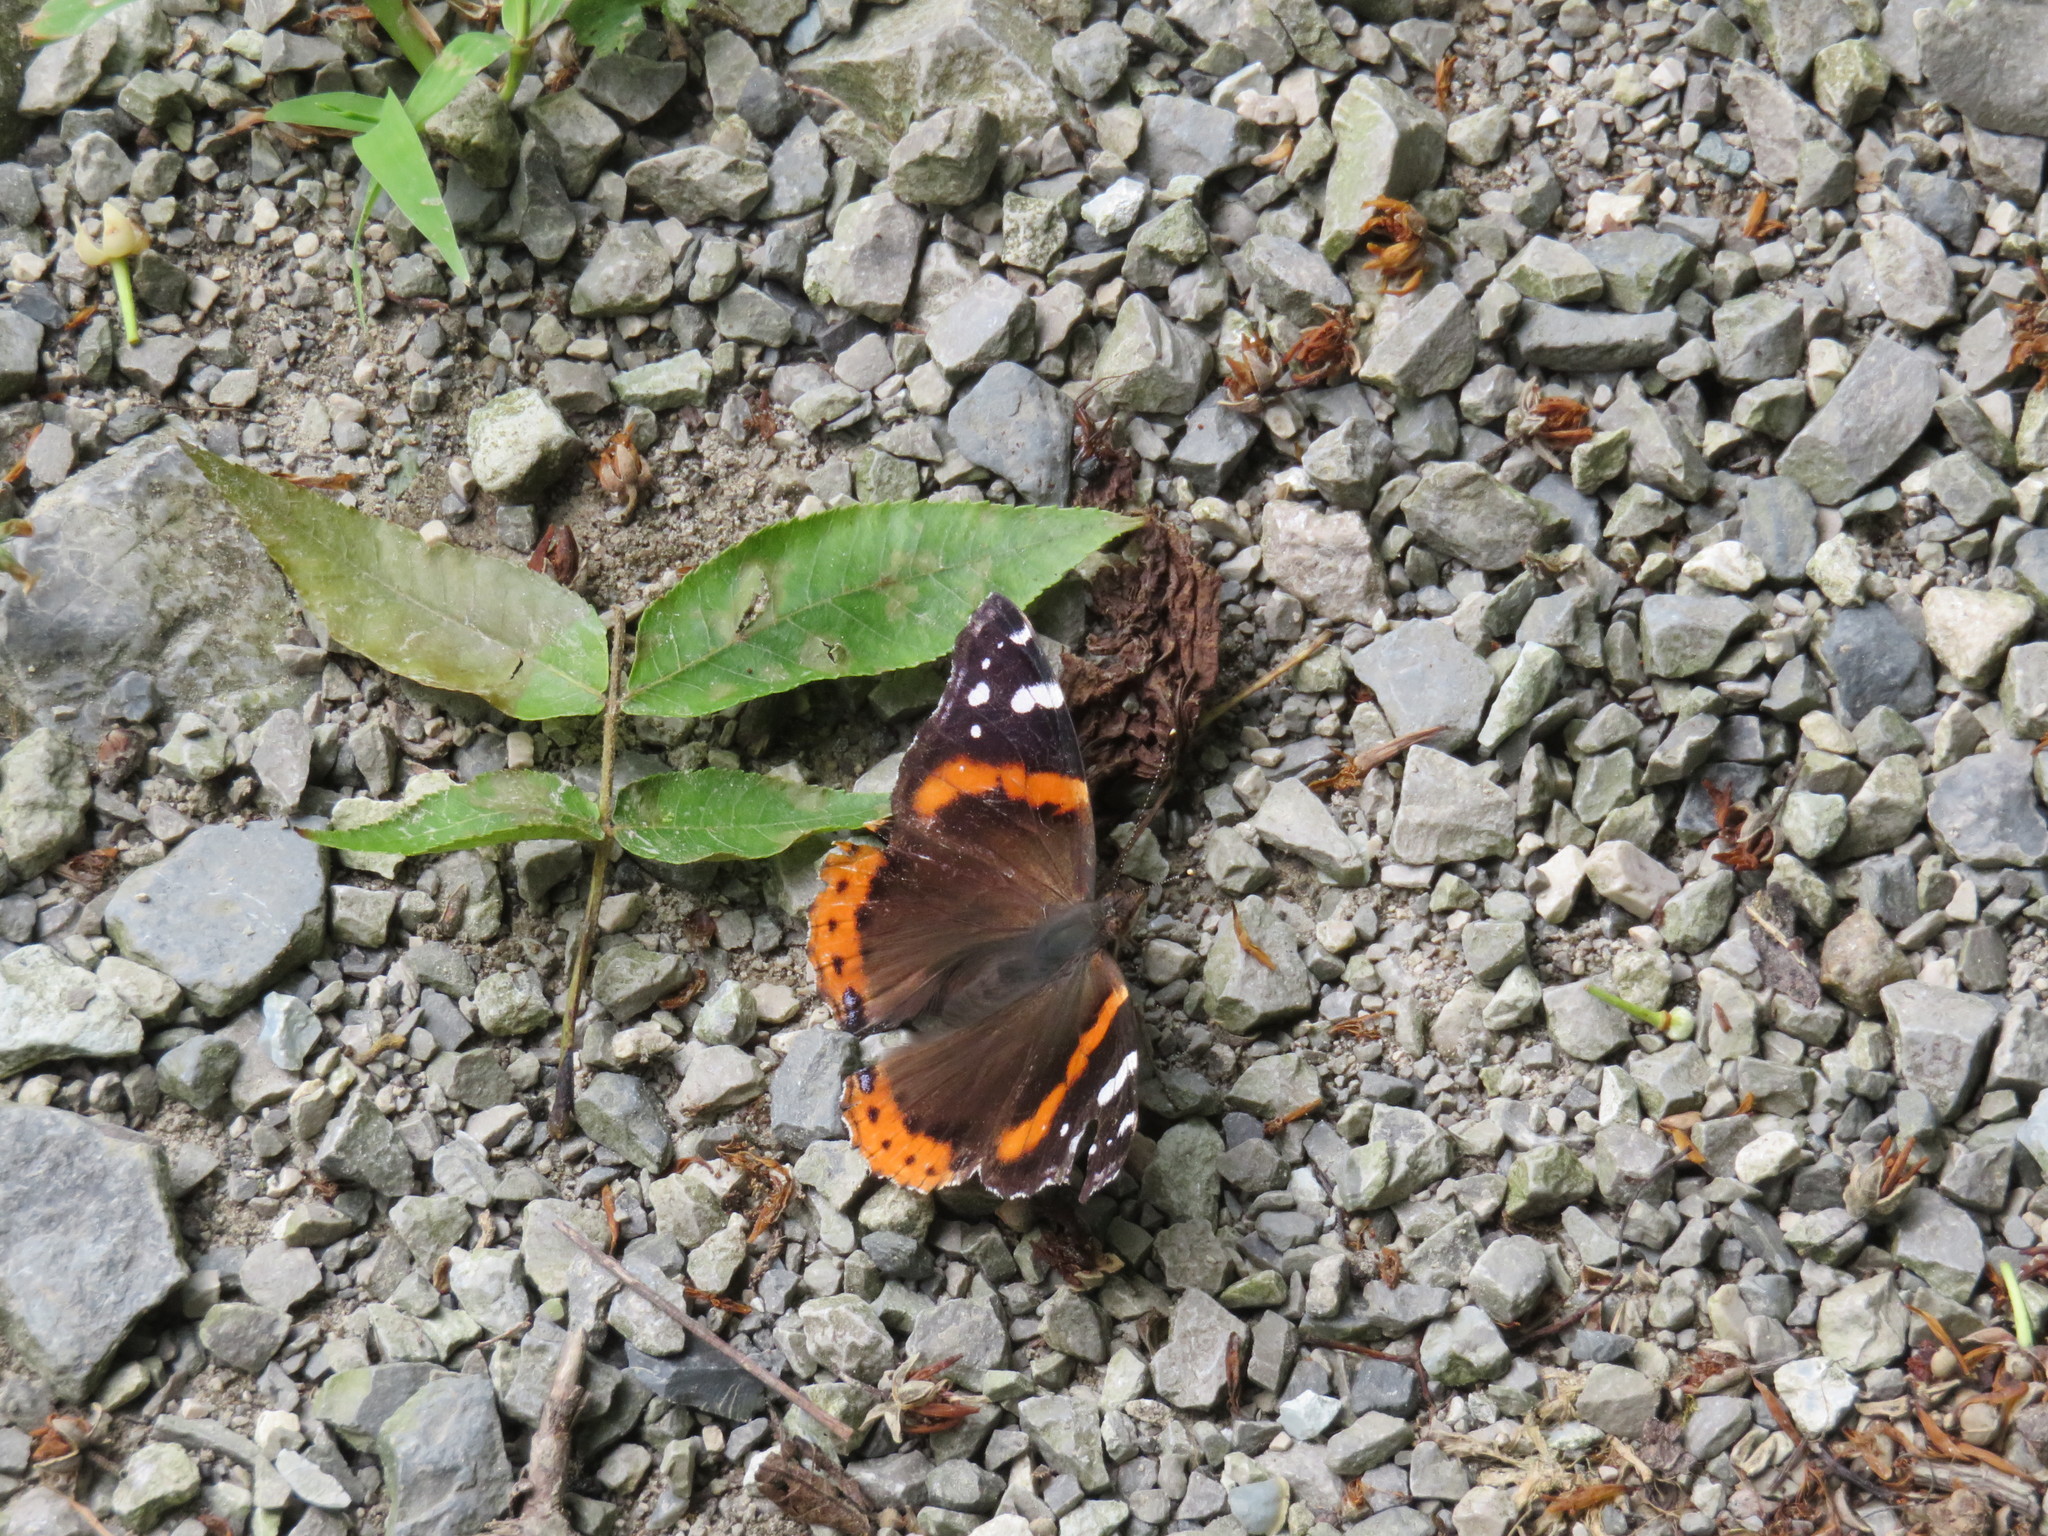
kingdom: Animalia
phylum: Arthropoda
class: Insecta
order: Lepidoptera
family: Nymphalidae
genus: Vanessa
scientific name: Vanessa atalanta
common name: Red admiral
